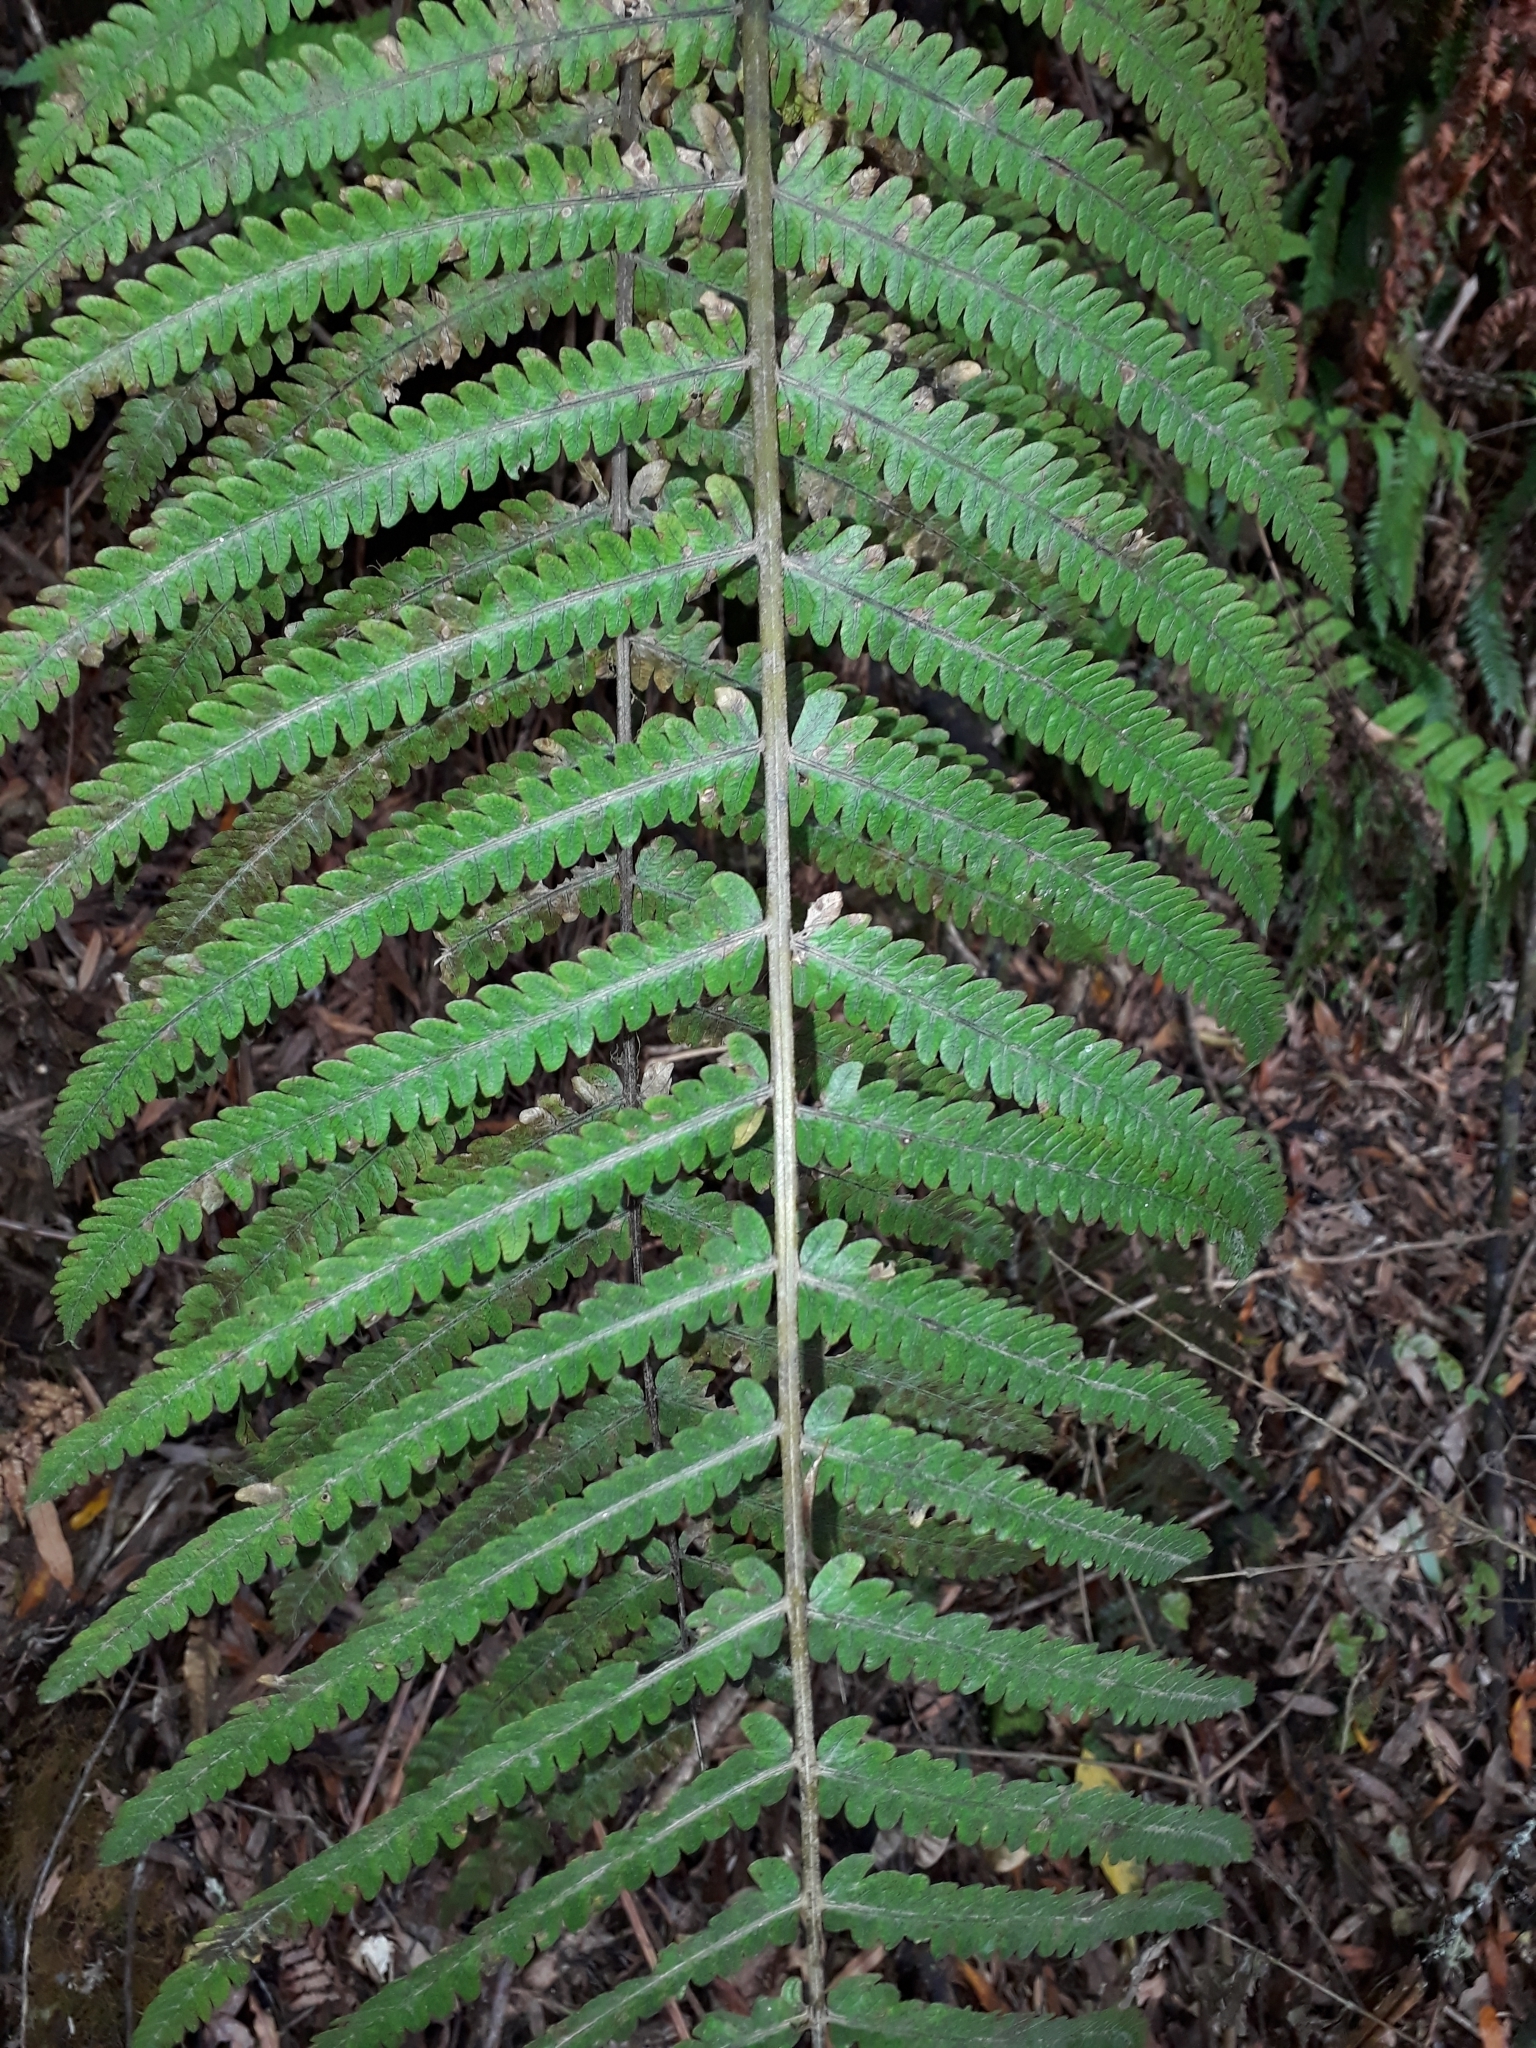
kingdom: Plantae
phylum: Tracheophyta
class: Polypodiopsida
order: Polypodiales
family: Thelypteridaceae
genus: Pakau
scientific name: Pakau pennigera
